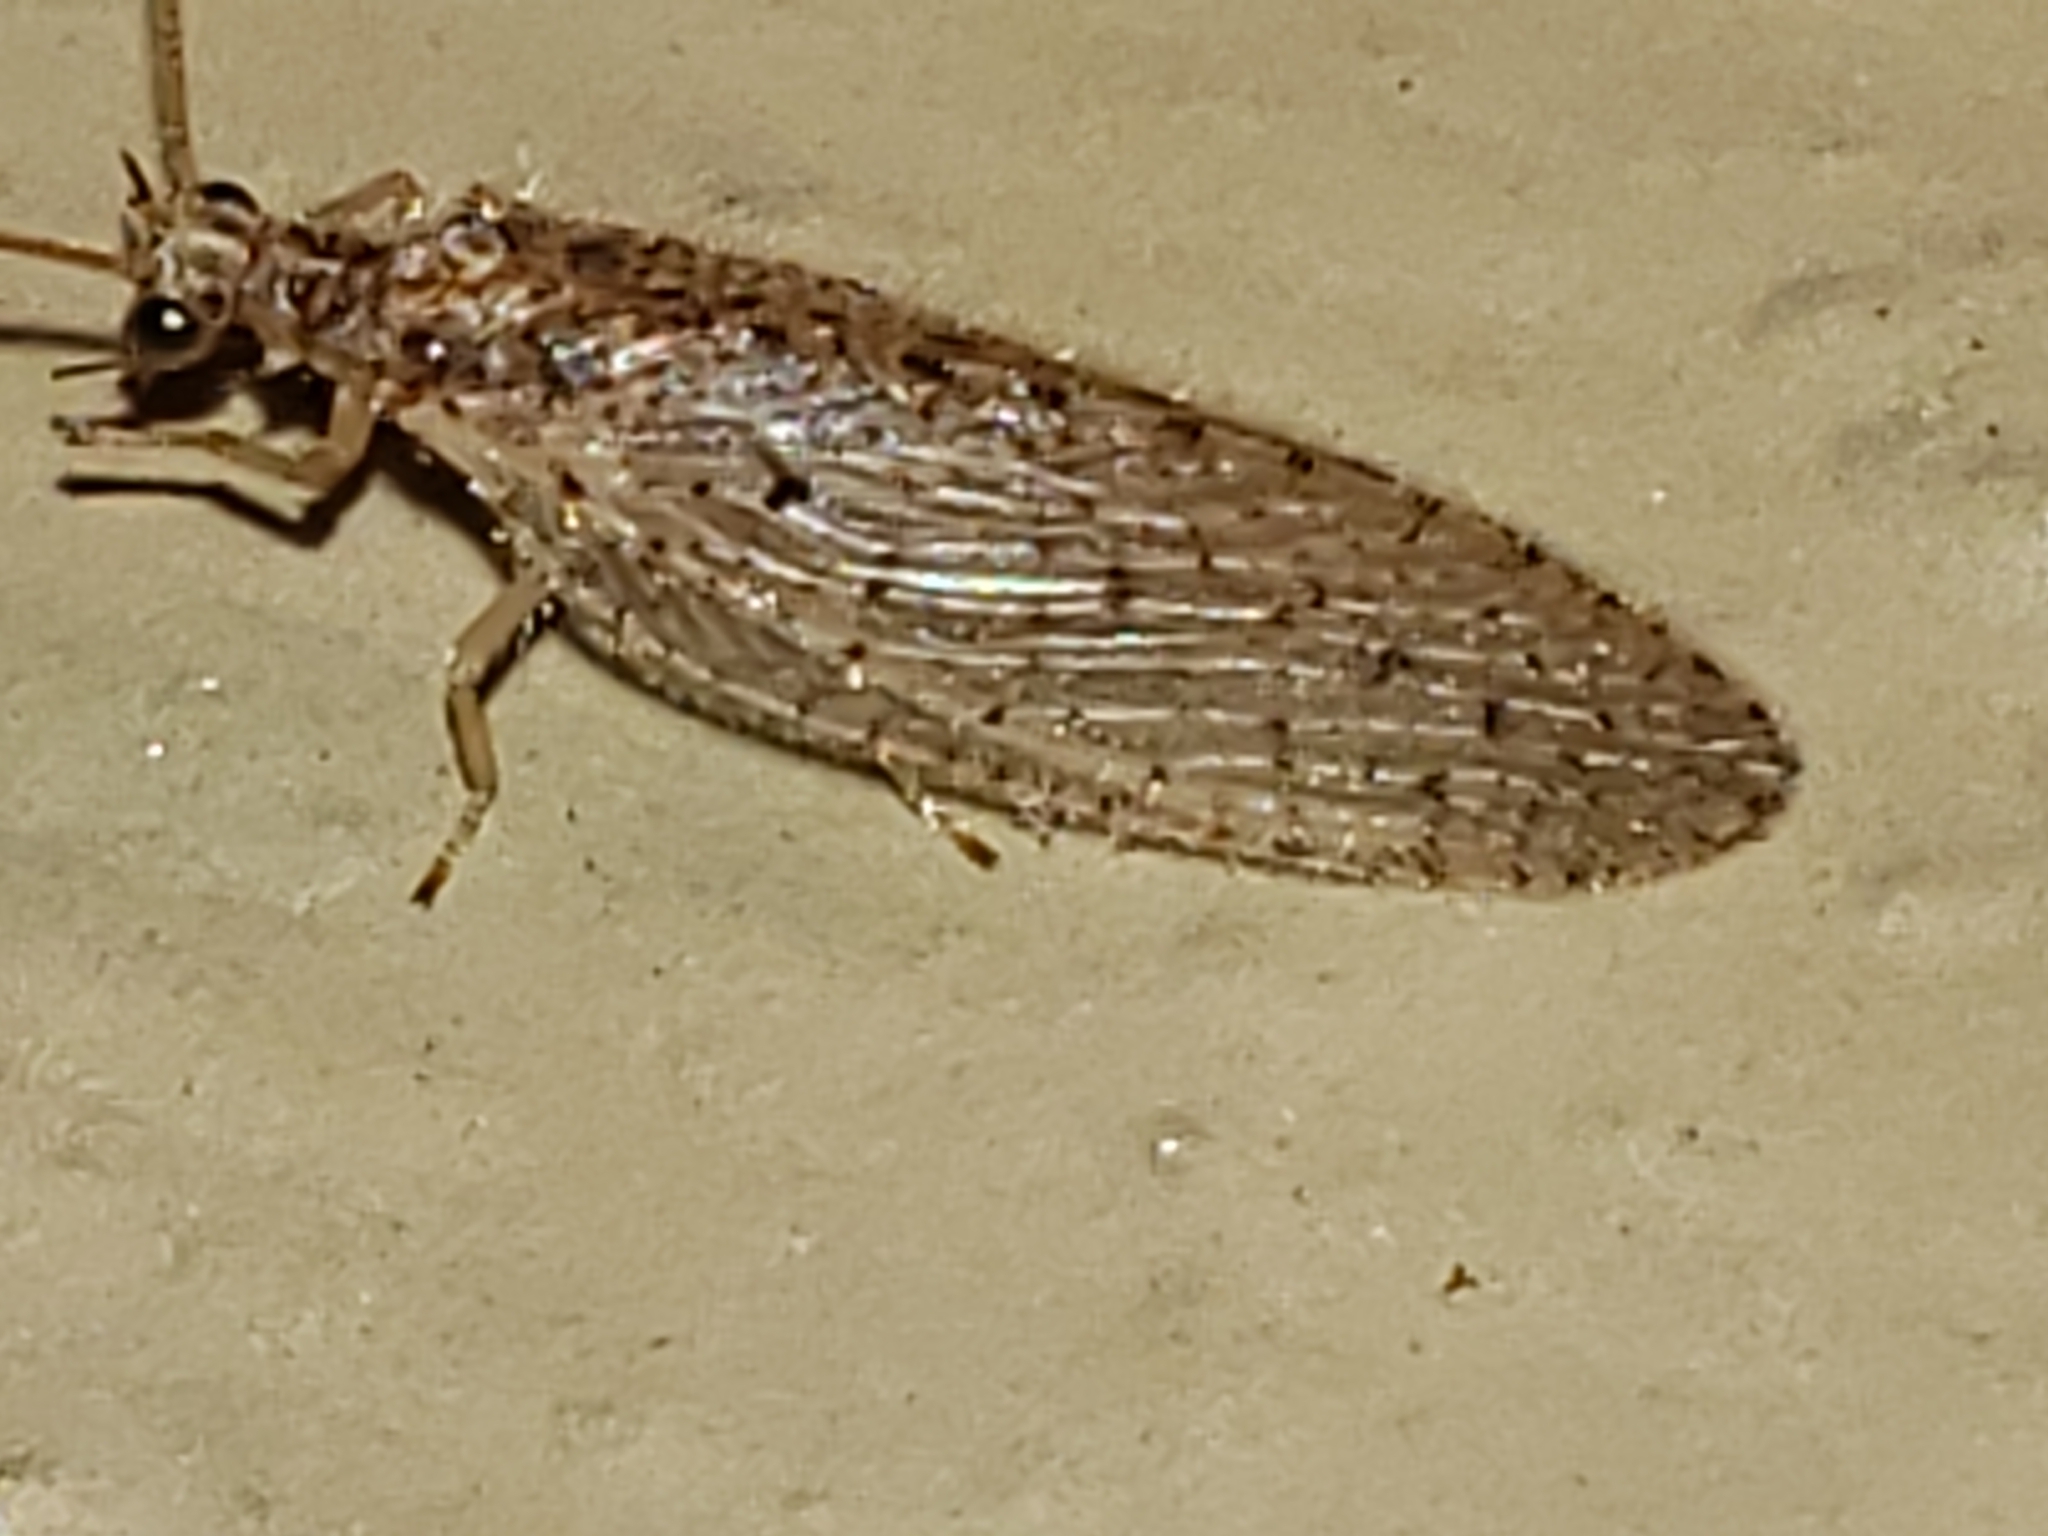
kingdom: Animalia
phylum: Arthropoda
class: Insecta
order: Neuroptera
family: Hemerobiidae
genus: Micromus
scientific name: Micromus subanticus
